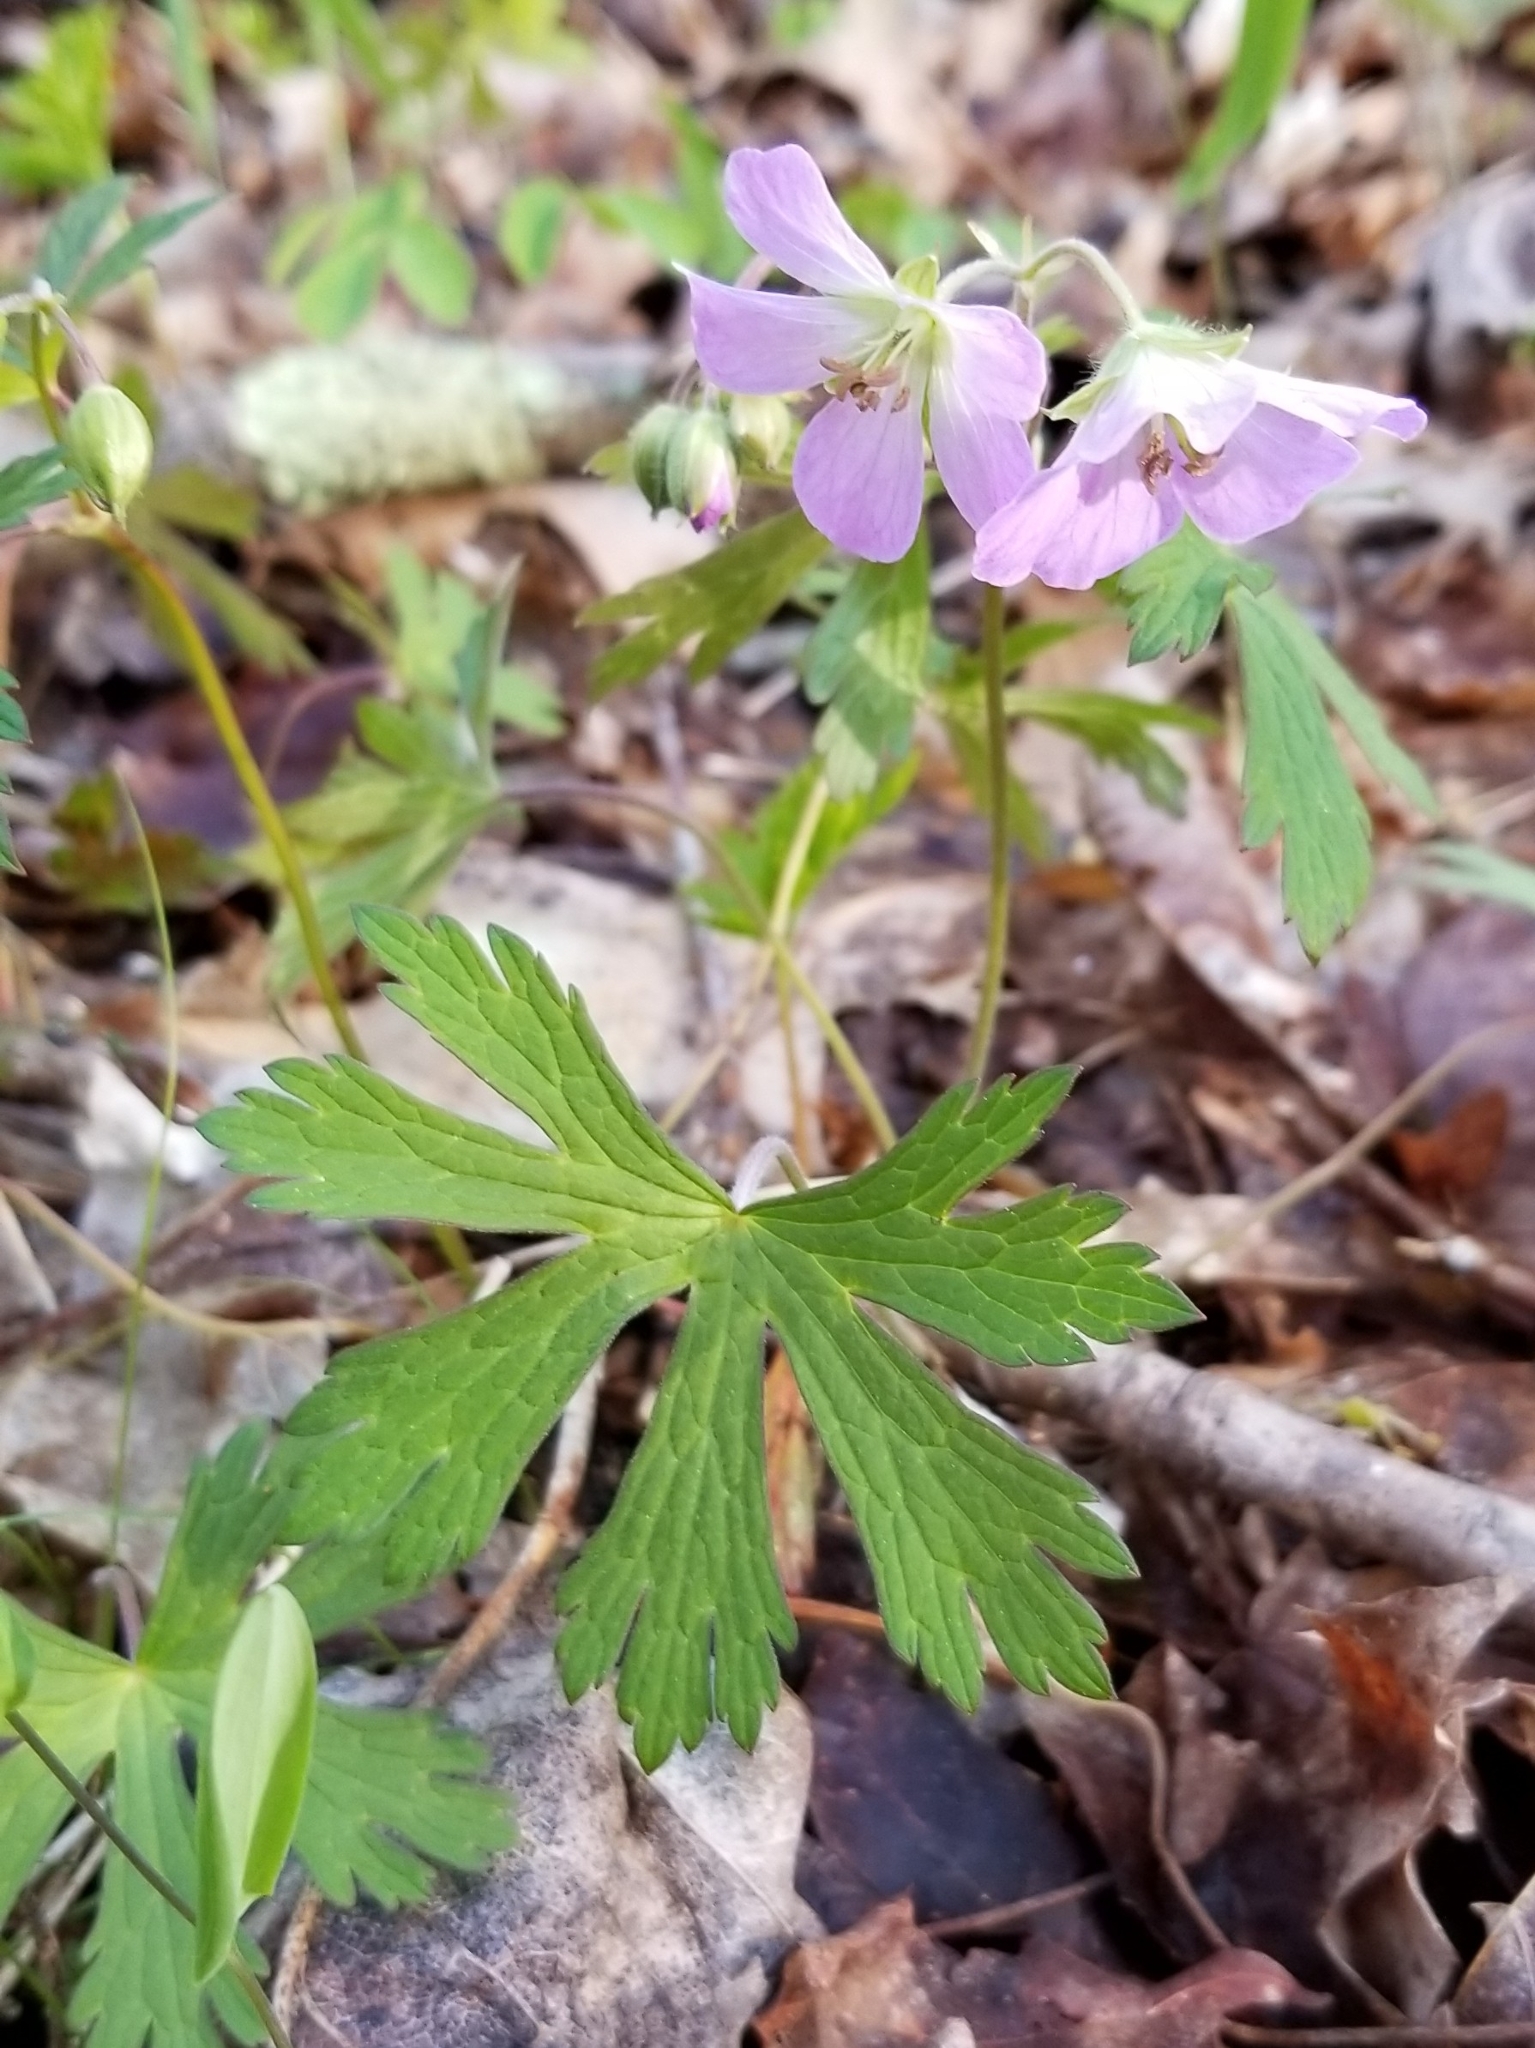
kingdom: Plantae
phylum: Tracheophyta
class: Magnoliopsida
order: Geraniales
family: Geraniaceae
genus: Geranium
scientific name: Geranium maculatum
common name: Spotted geranium
